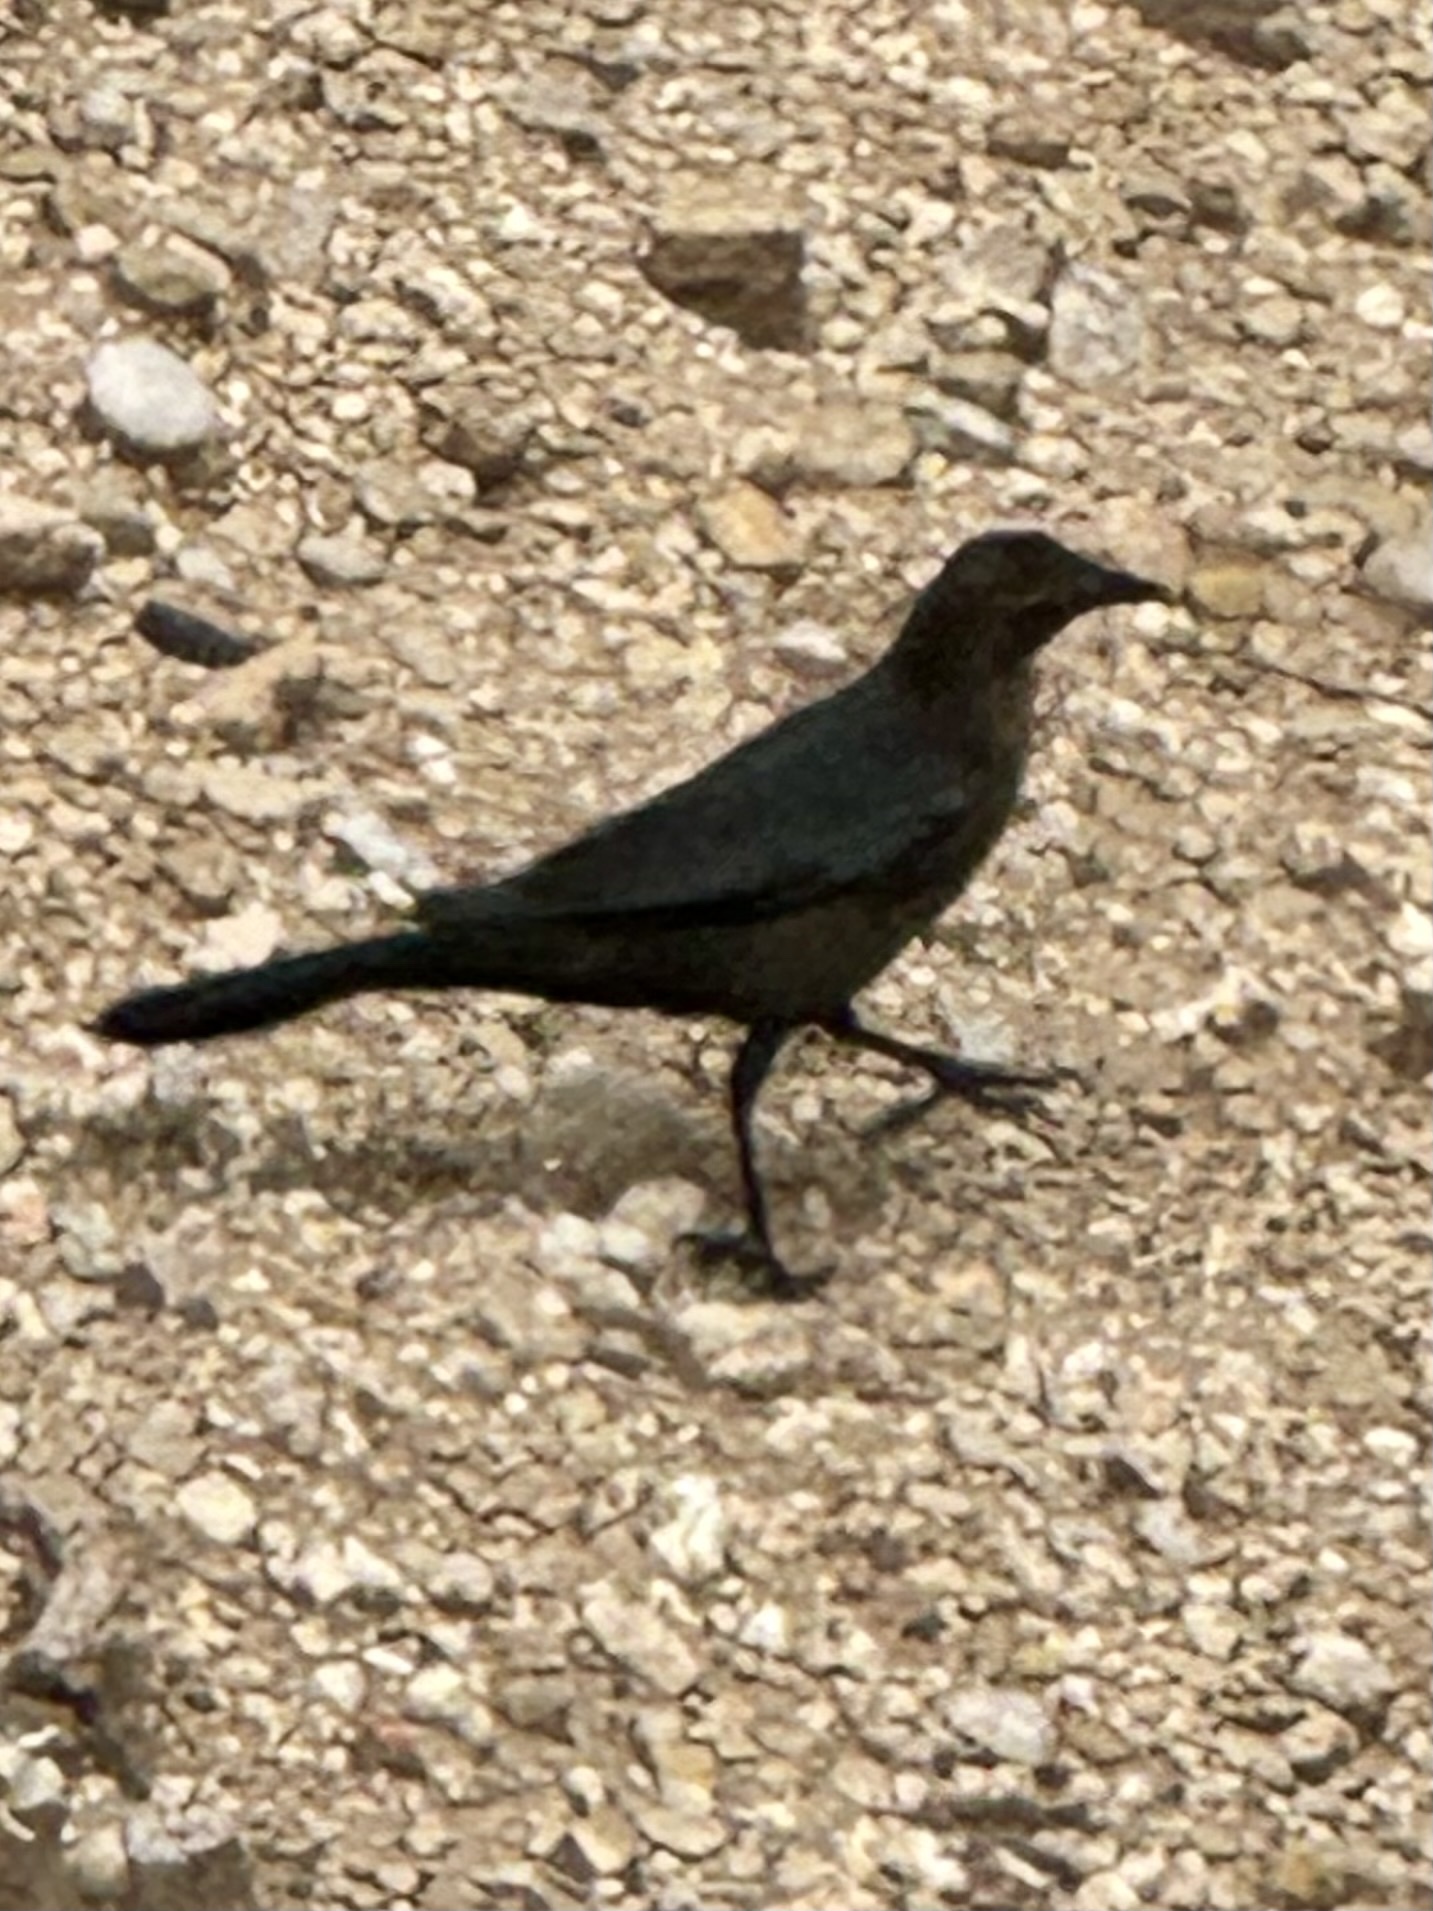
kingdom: Animalia
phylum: Chordata
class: Aves
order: Passeriformes
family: Icteridae
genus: Quiscalus
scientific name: Quiscalus mexicanus
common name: Great-tailed grackle
